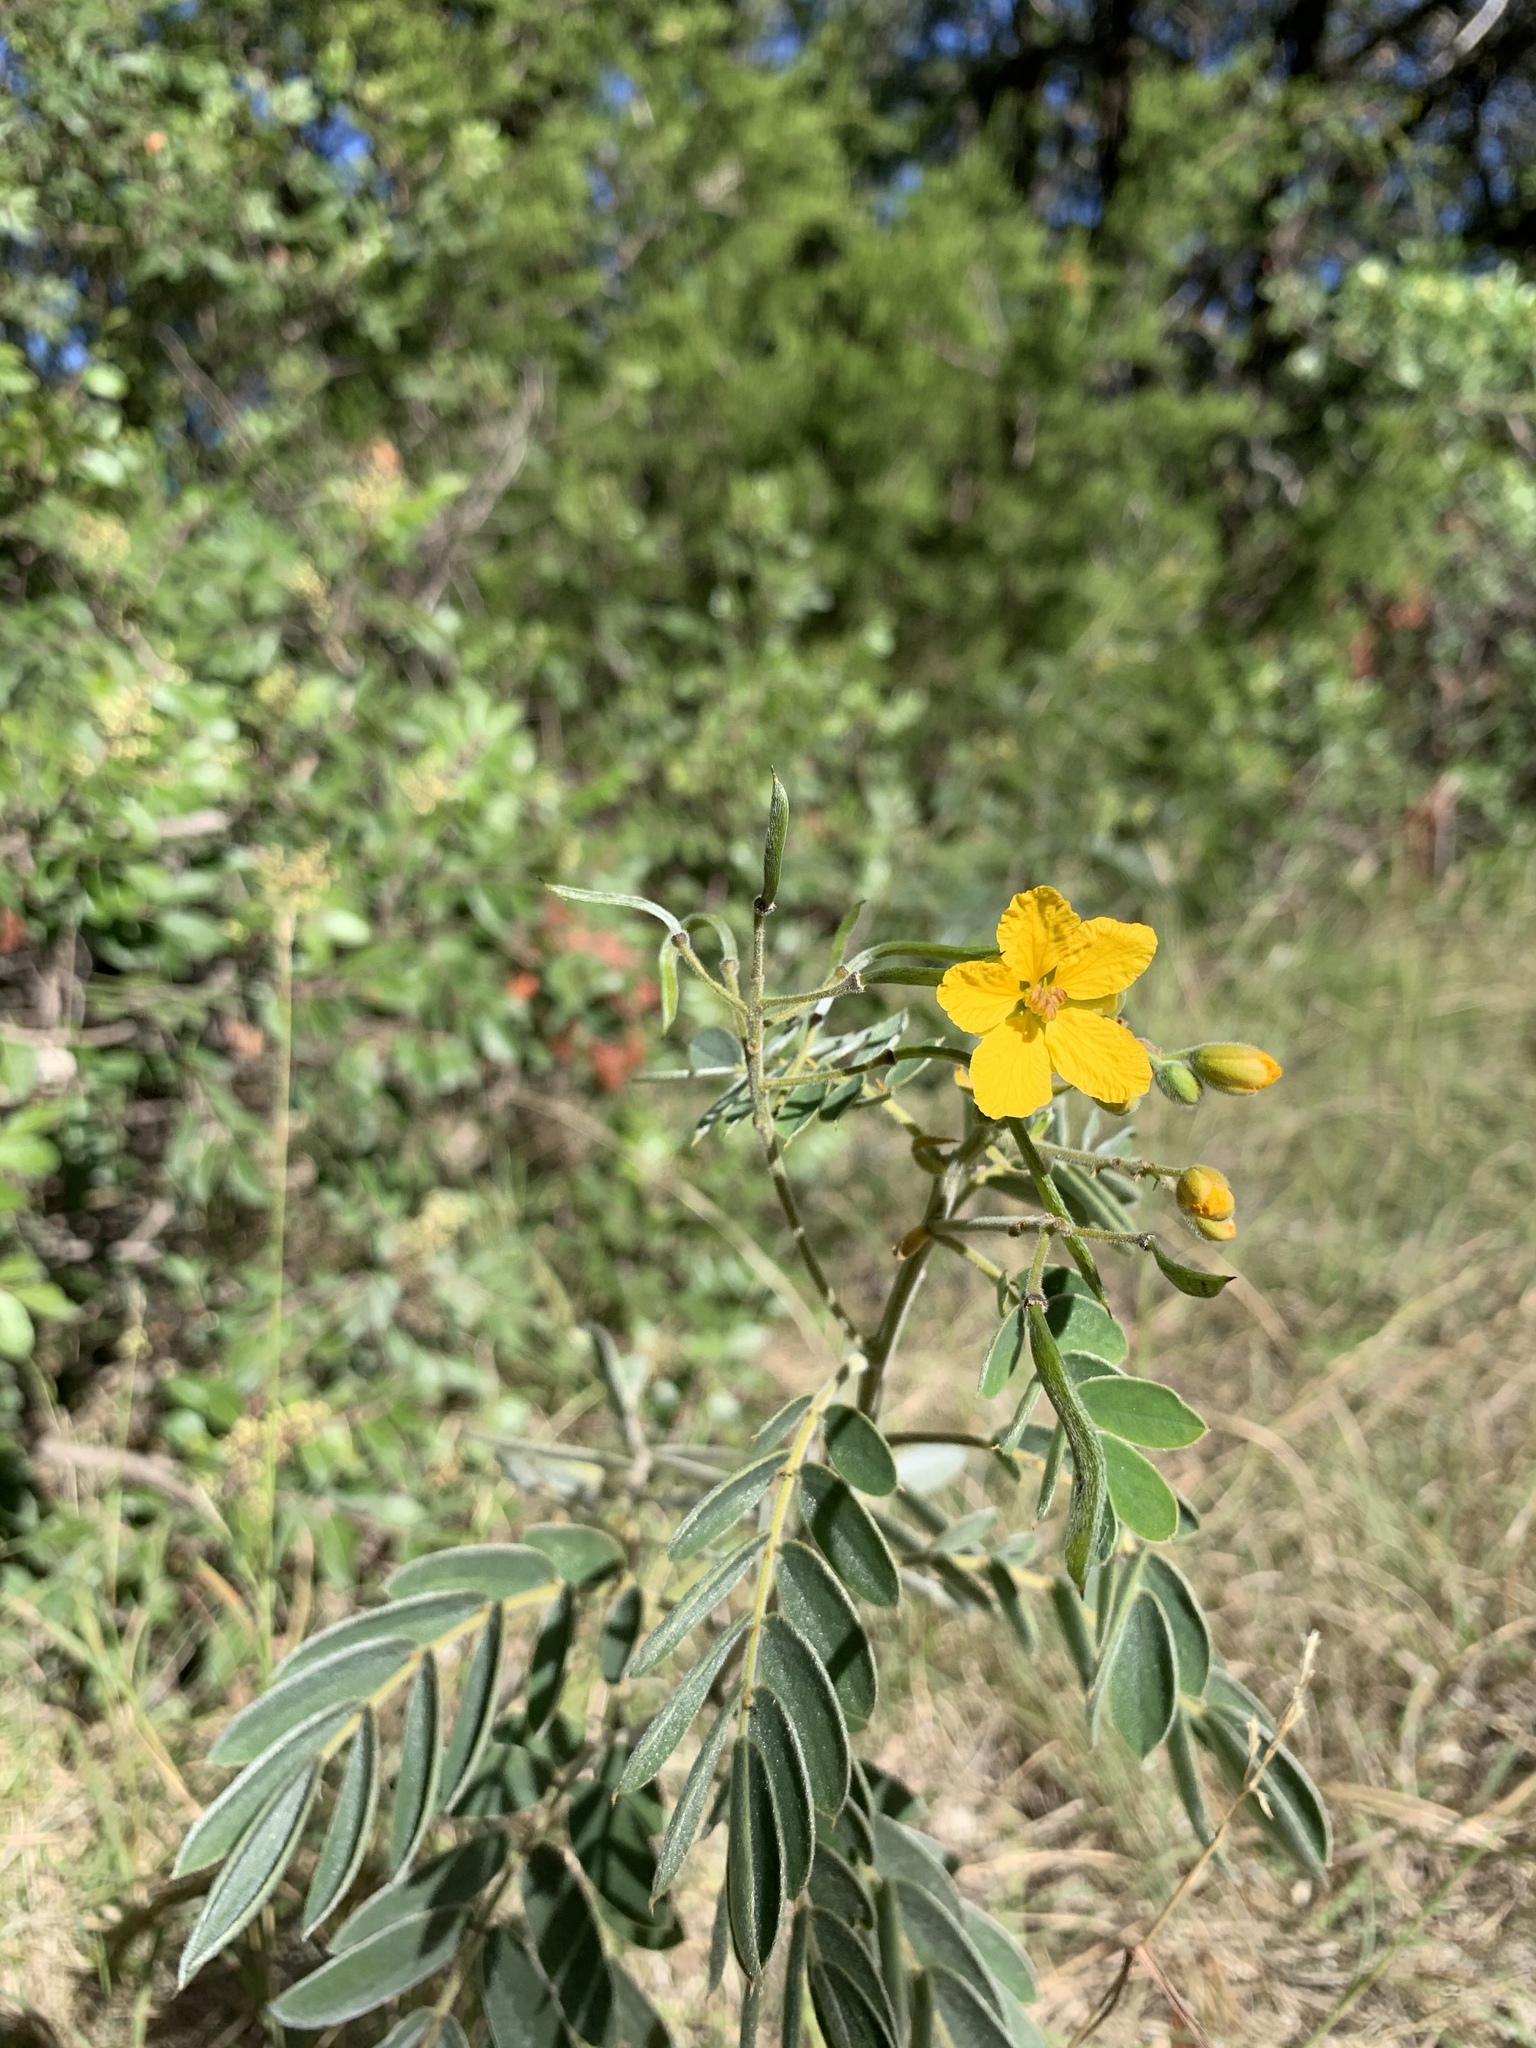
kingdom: Plantae
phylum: Tracheophyta
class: Magnoliopsida
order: Fabales
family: Fabaceae
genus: Senna
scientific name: Senna lindheimeriana
